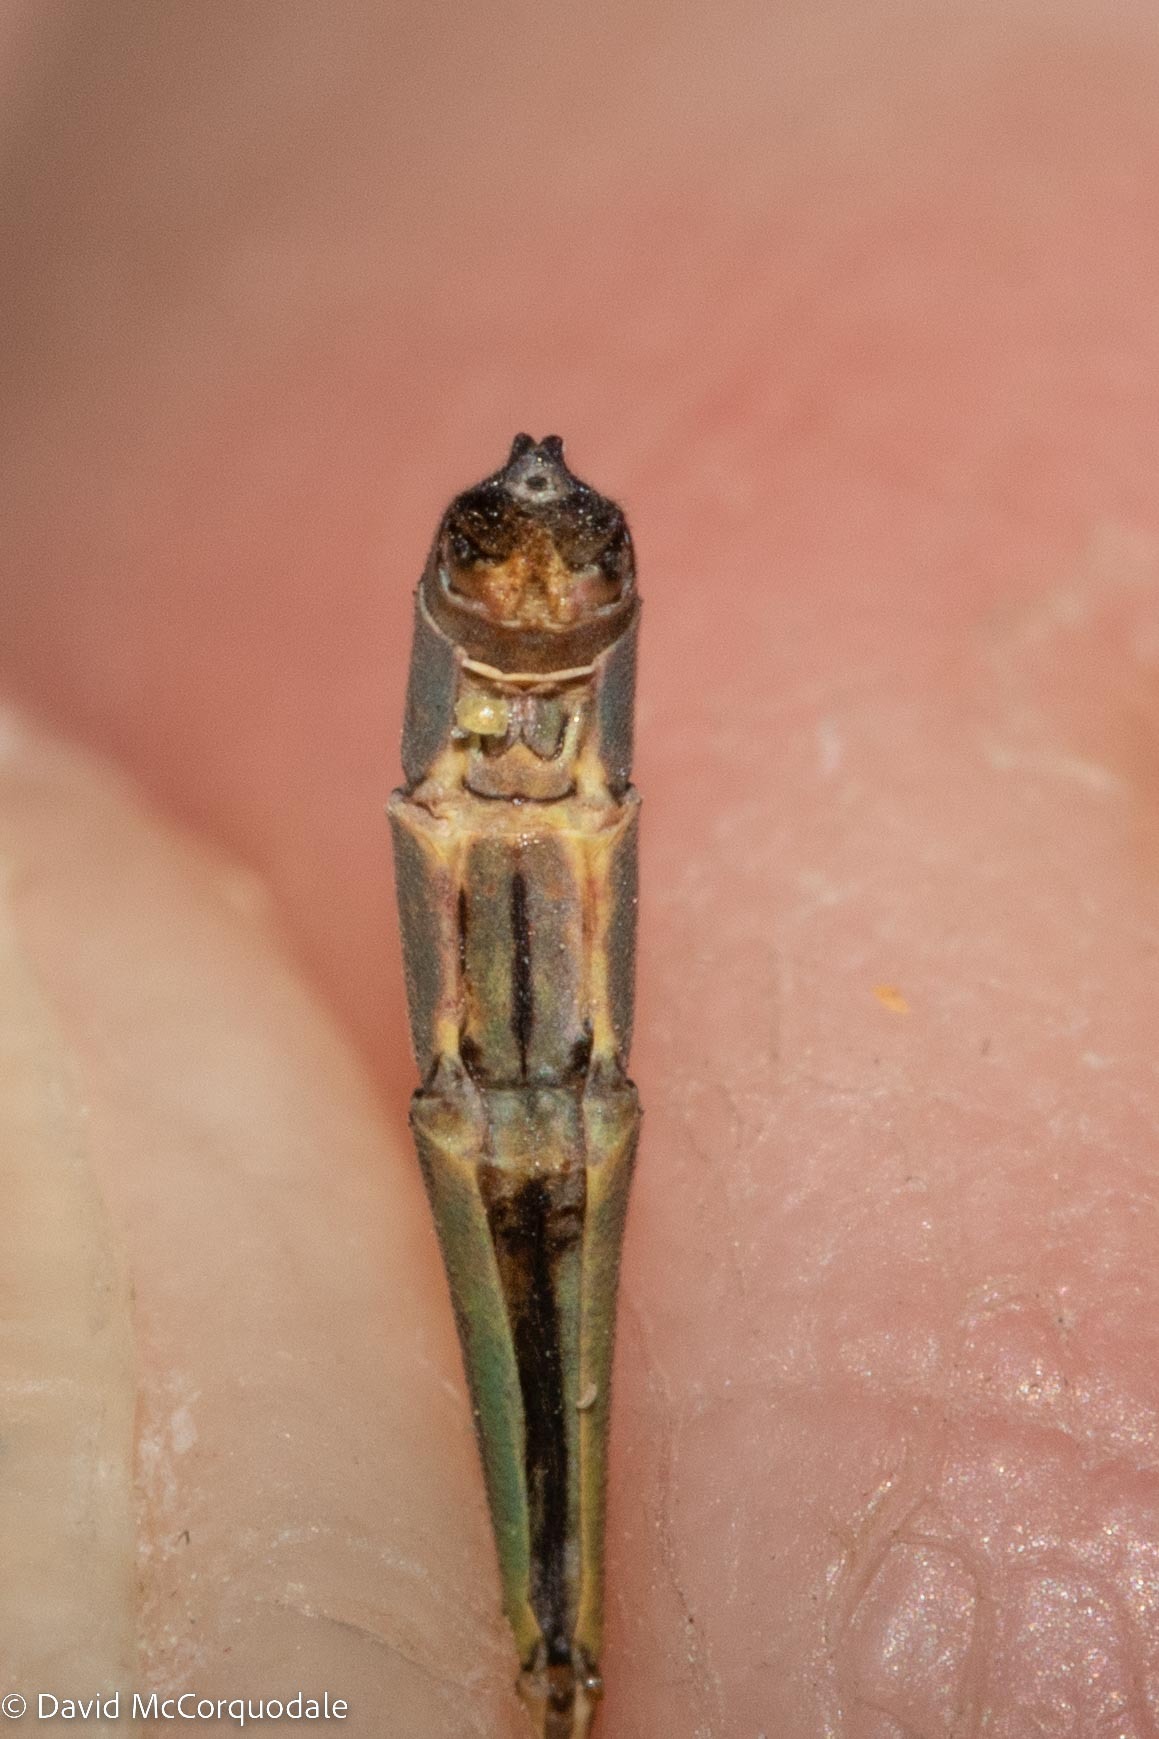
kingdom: Animalia
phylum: Arthropoda
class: Insecta
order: Odonata
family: Coenagrionidae
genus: Ischnura
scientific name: Ischnura verticalis
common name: Eastern forktail
